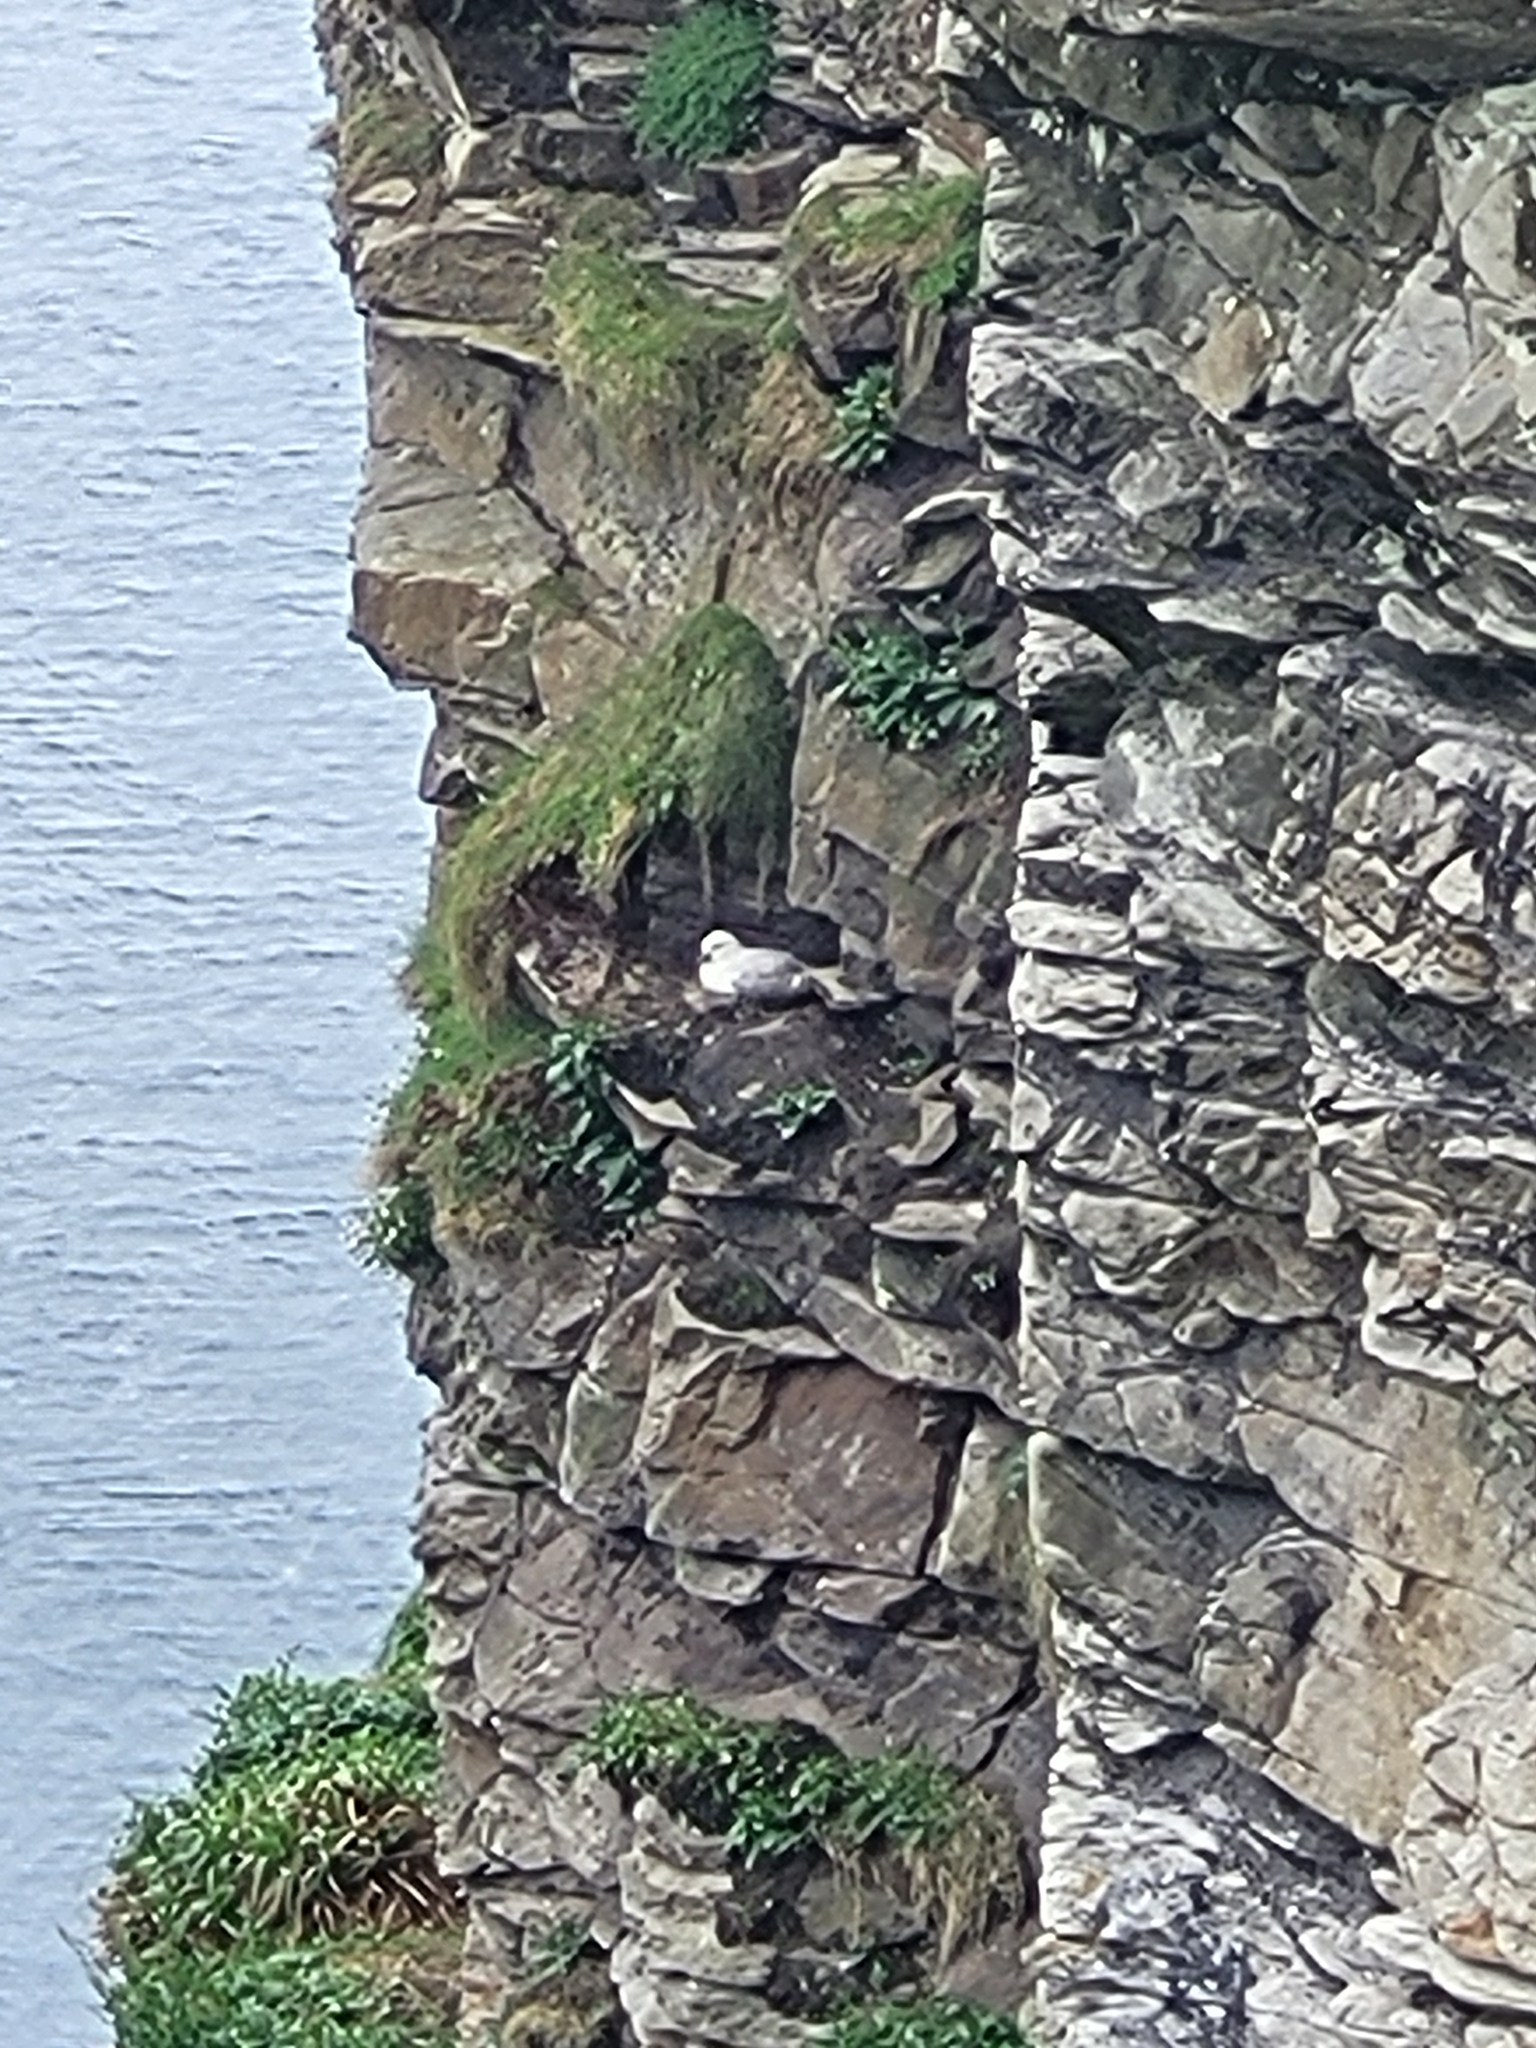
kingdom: Animalia
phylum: Chordata
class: Aves
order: Procellariiformes
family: Procellariidae
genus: Fulmarus
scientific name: Fulmarus glacialis
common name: Northern fulmar
